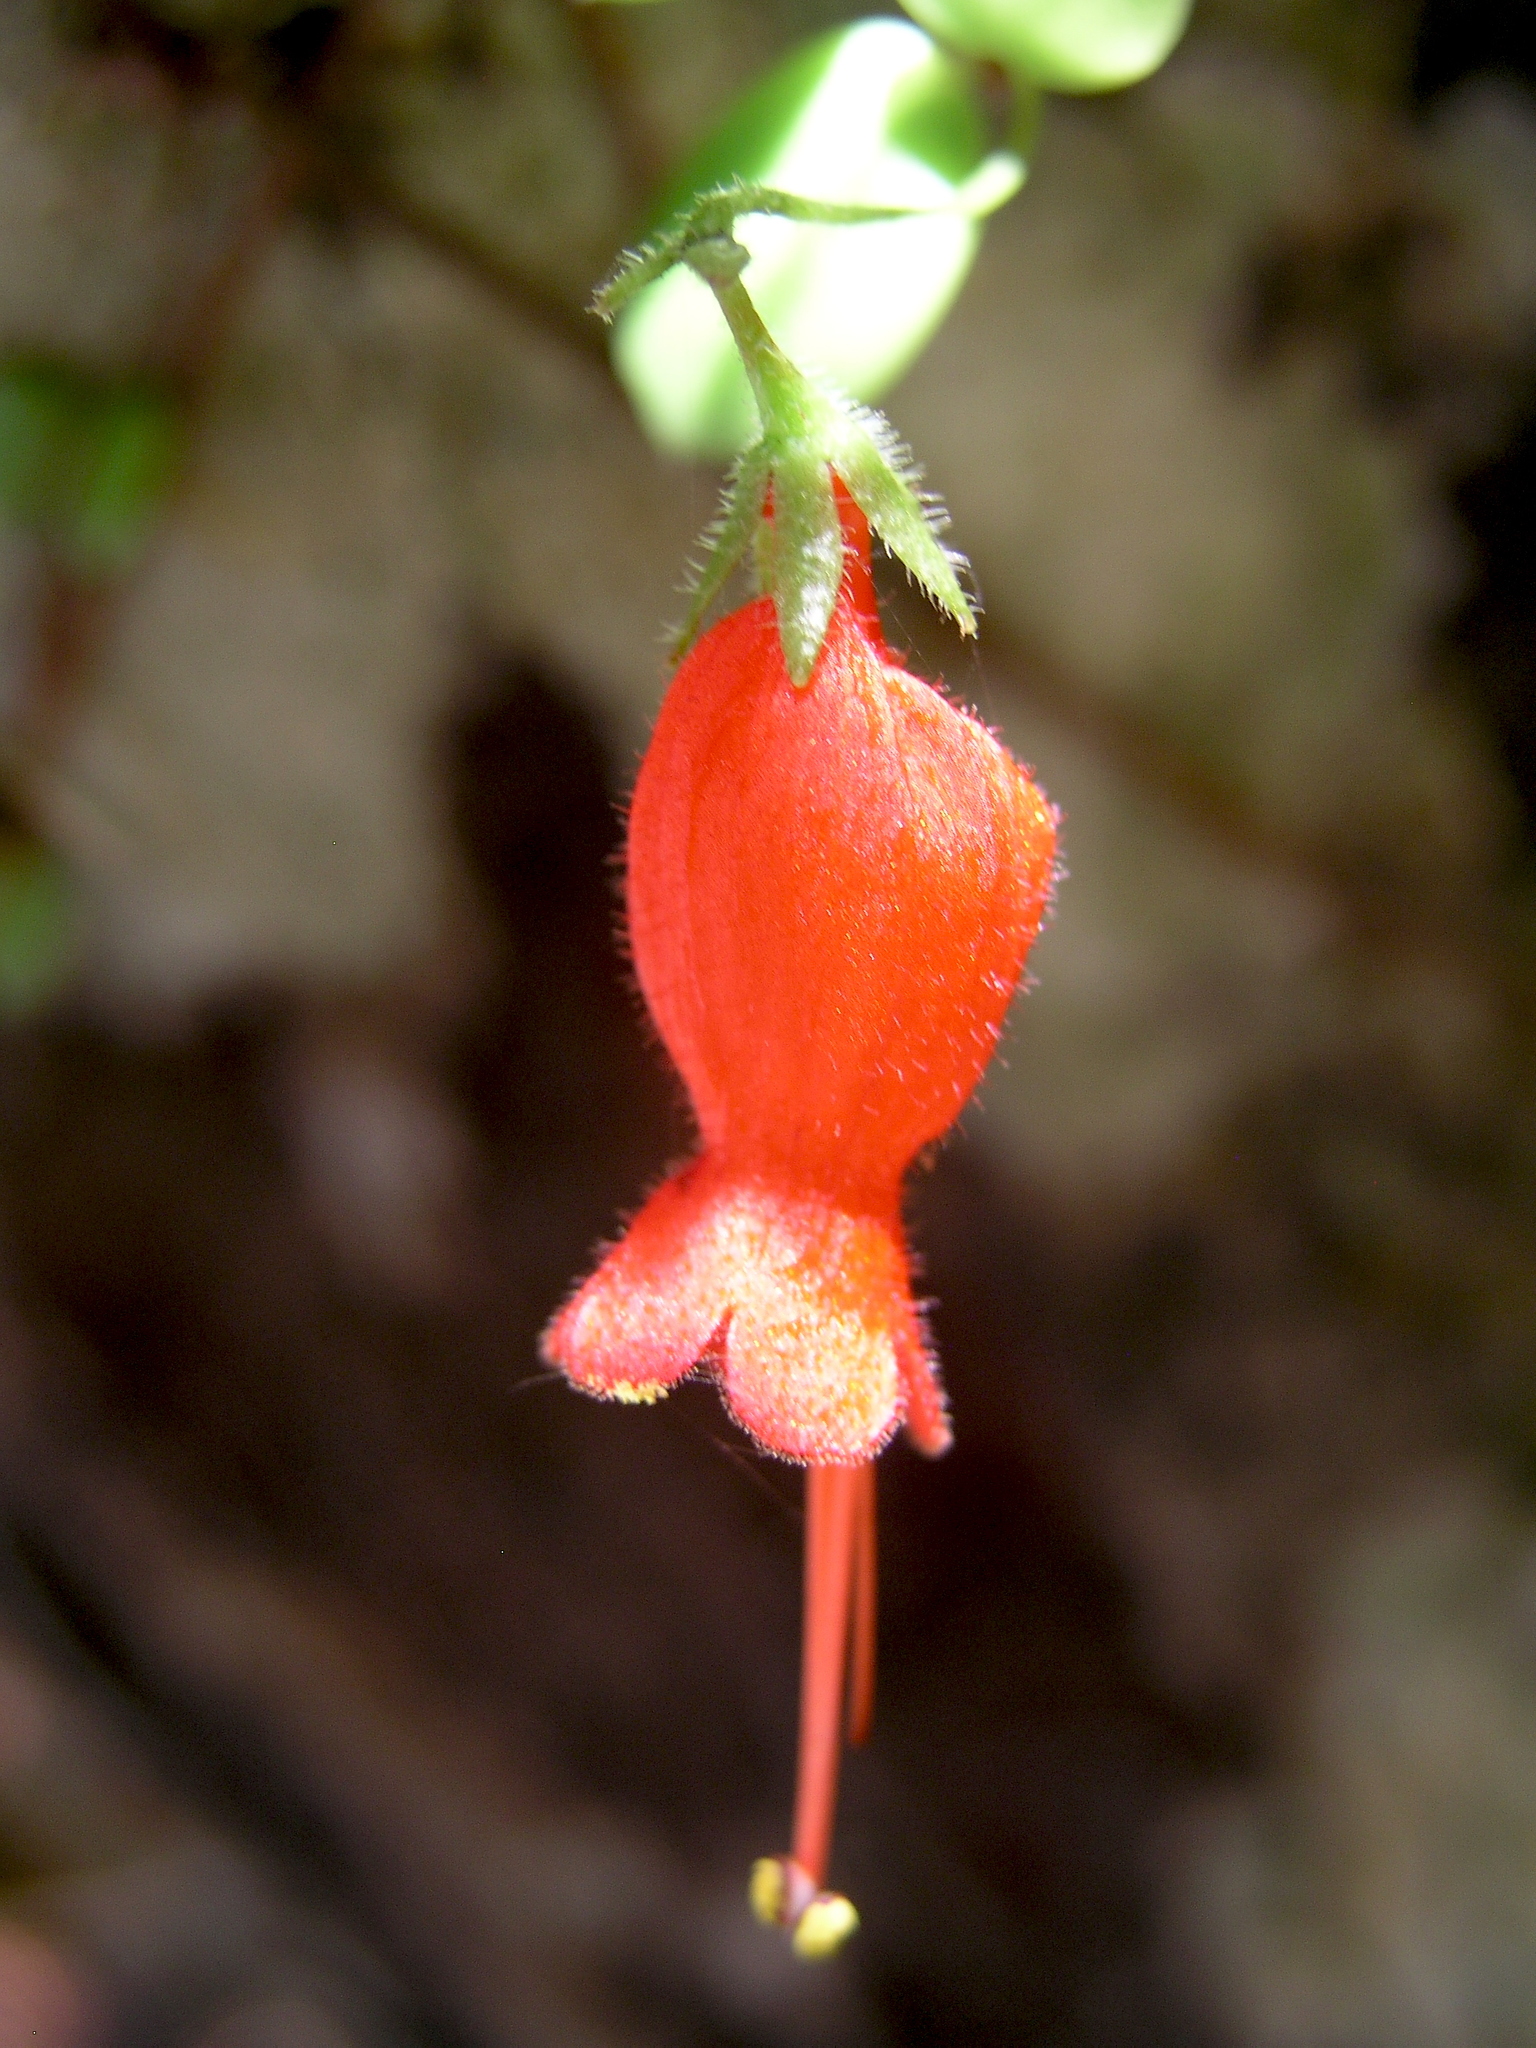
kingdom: Plantae
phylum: Tracheophyta
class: Magnoliopsida
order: Lamiales
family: Gesneriaceae
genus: Sarmienta
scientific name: Sarmienta scandens
